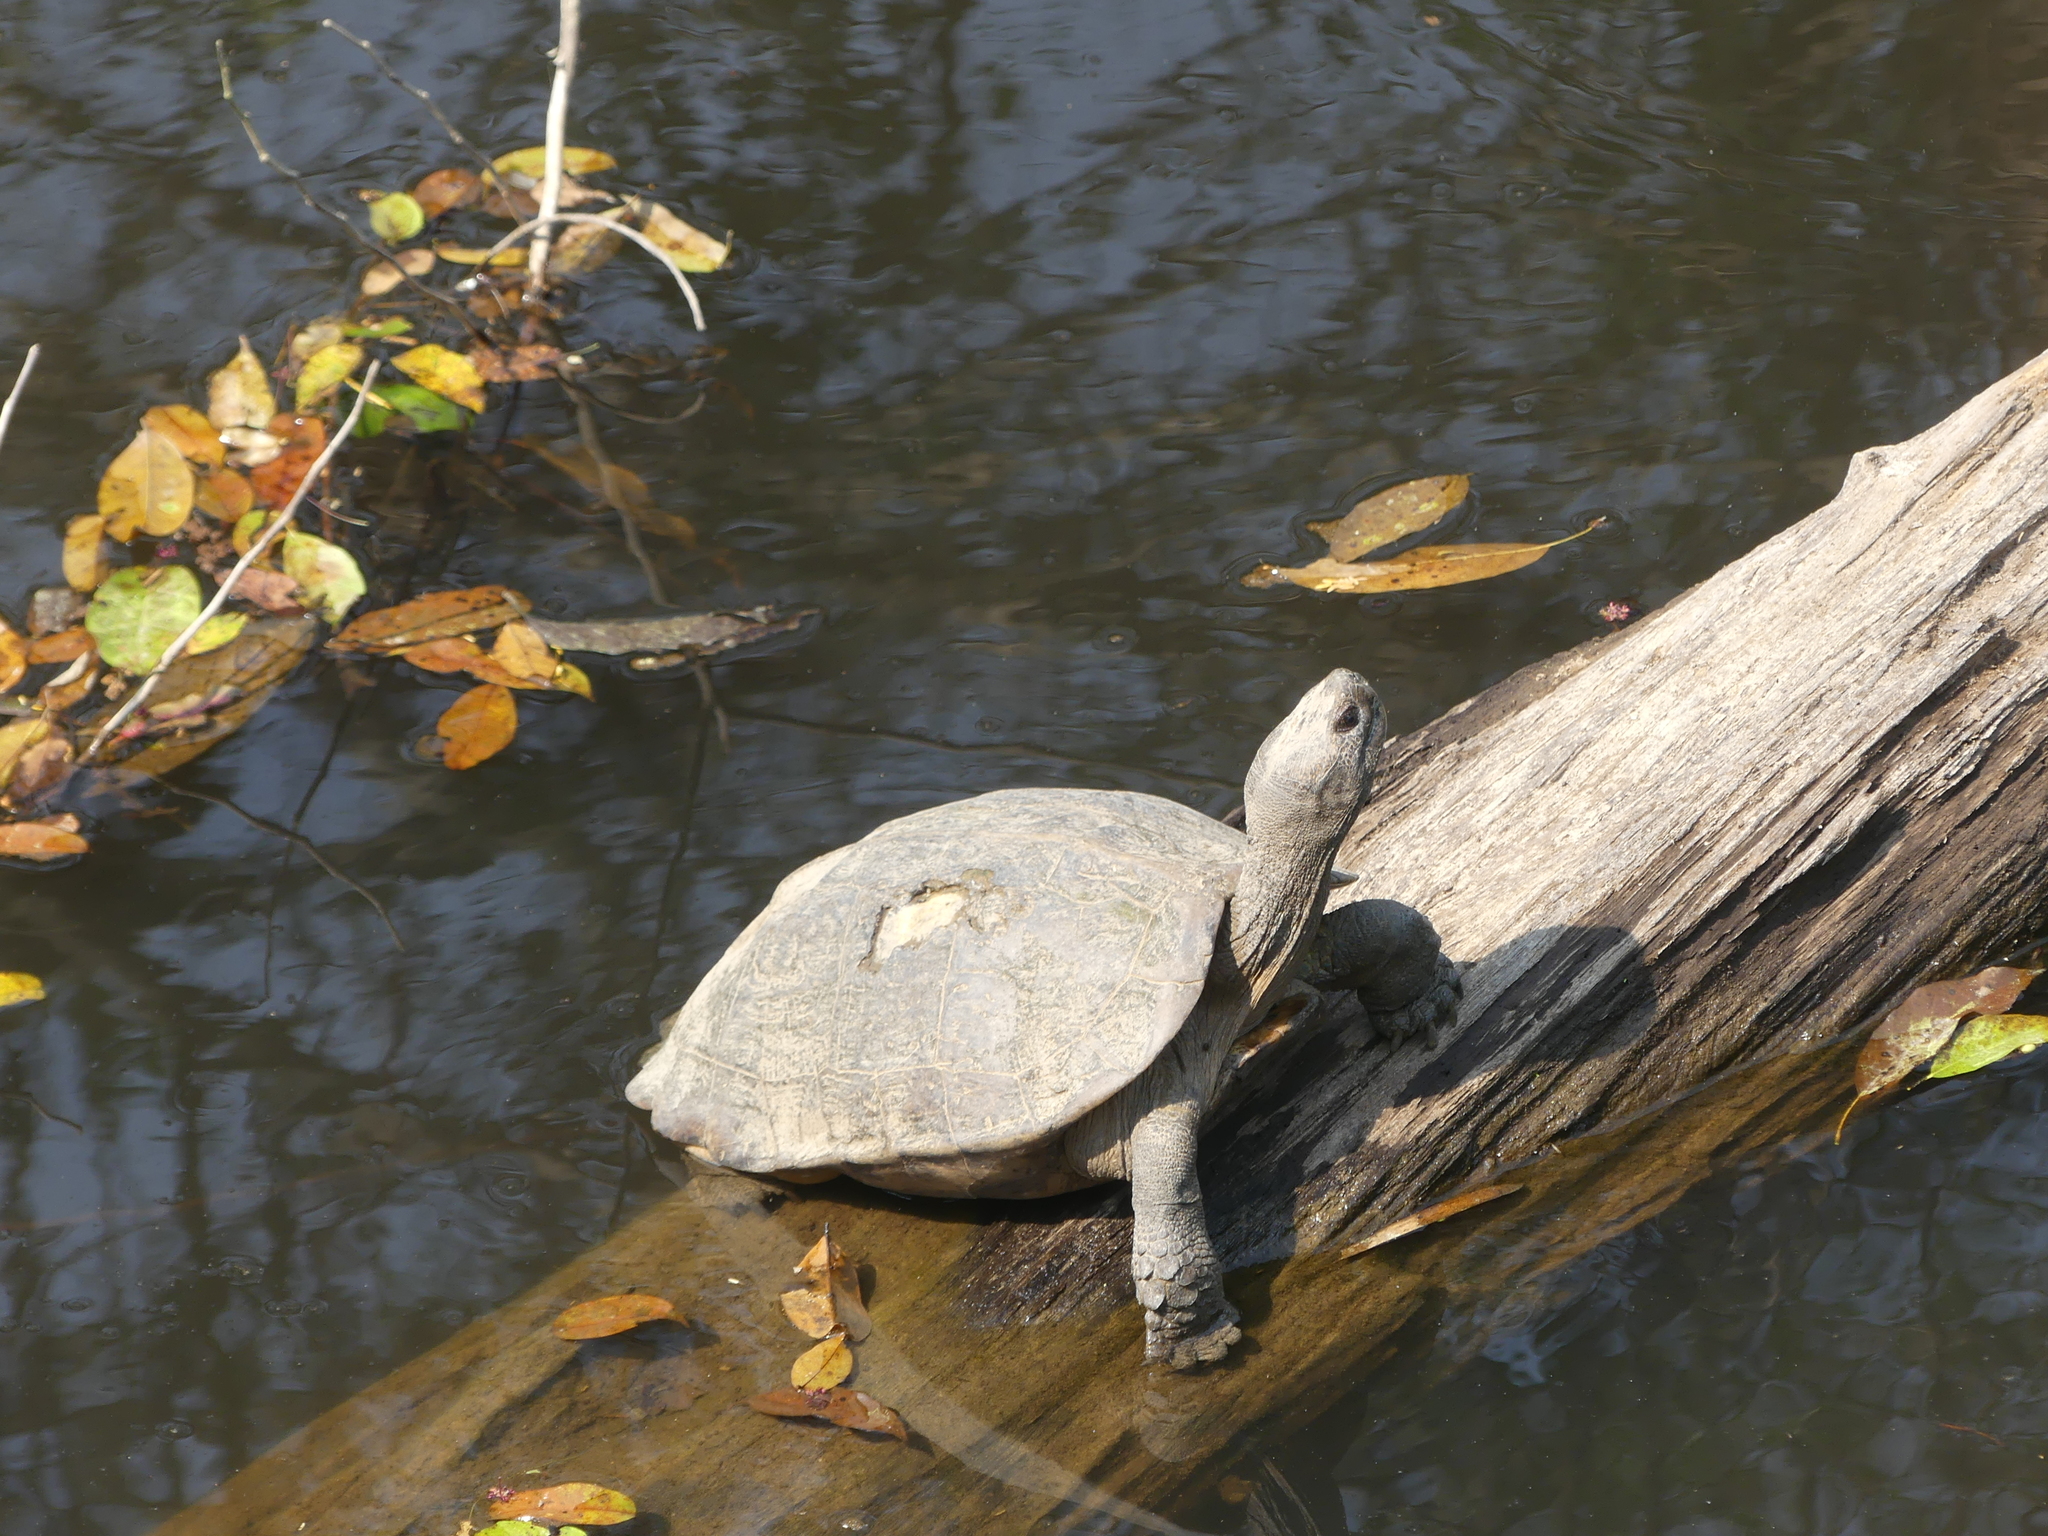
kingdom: Animalia
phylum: Chordata
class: Testudines
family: Geoemydidae
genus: Heosemys
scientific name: Heosemys grandis
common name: Giant asian pond turtle
